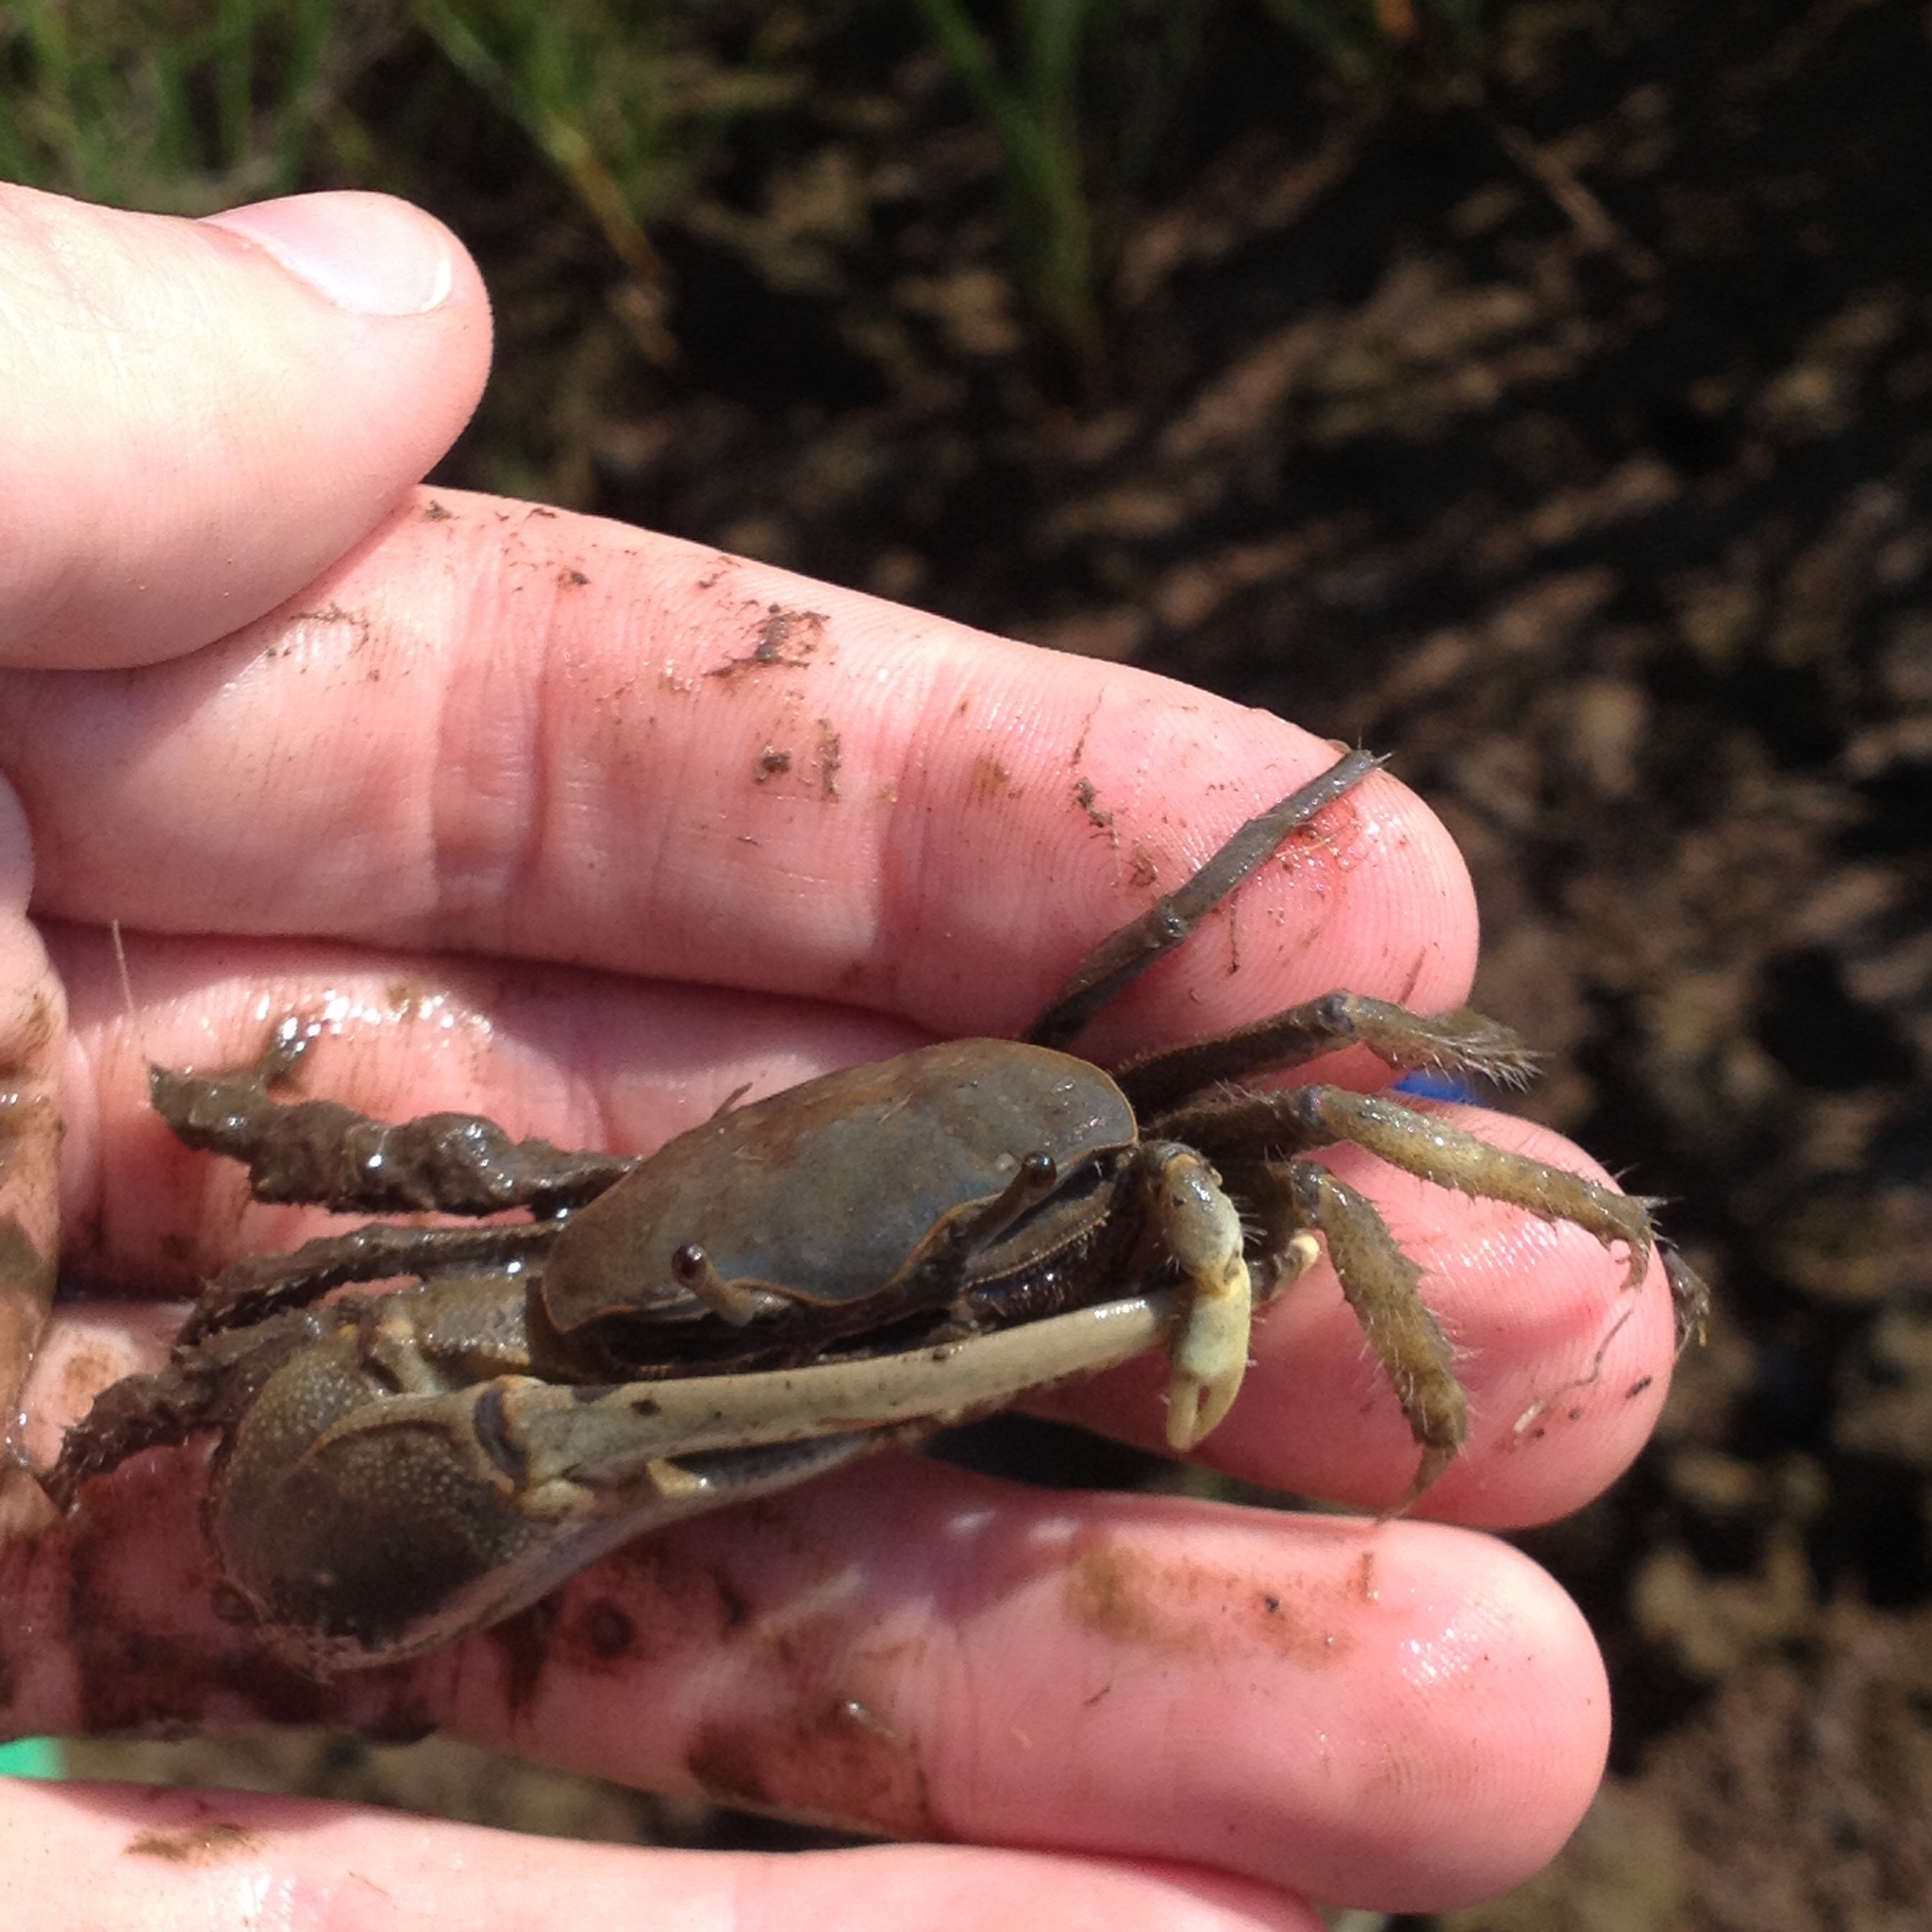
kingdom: Animalia
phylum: Arthropoda
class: Malacostraca
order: Decapoda
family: Ocypodidae
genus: Minuca
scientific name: Minuca pugnax
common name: Mud fiddler crab
